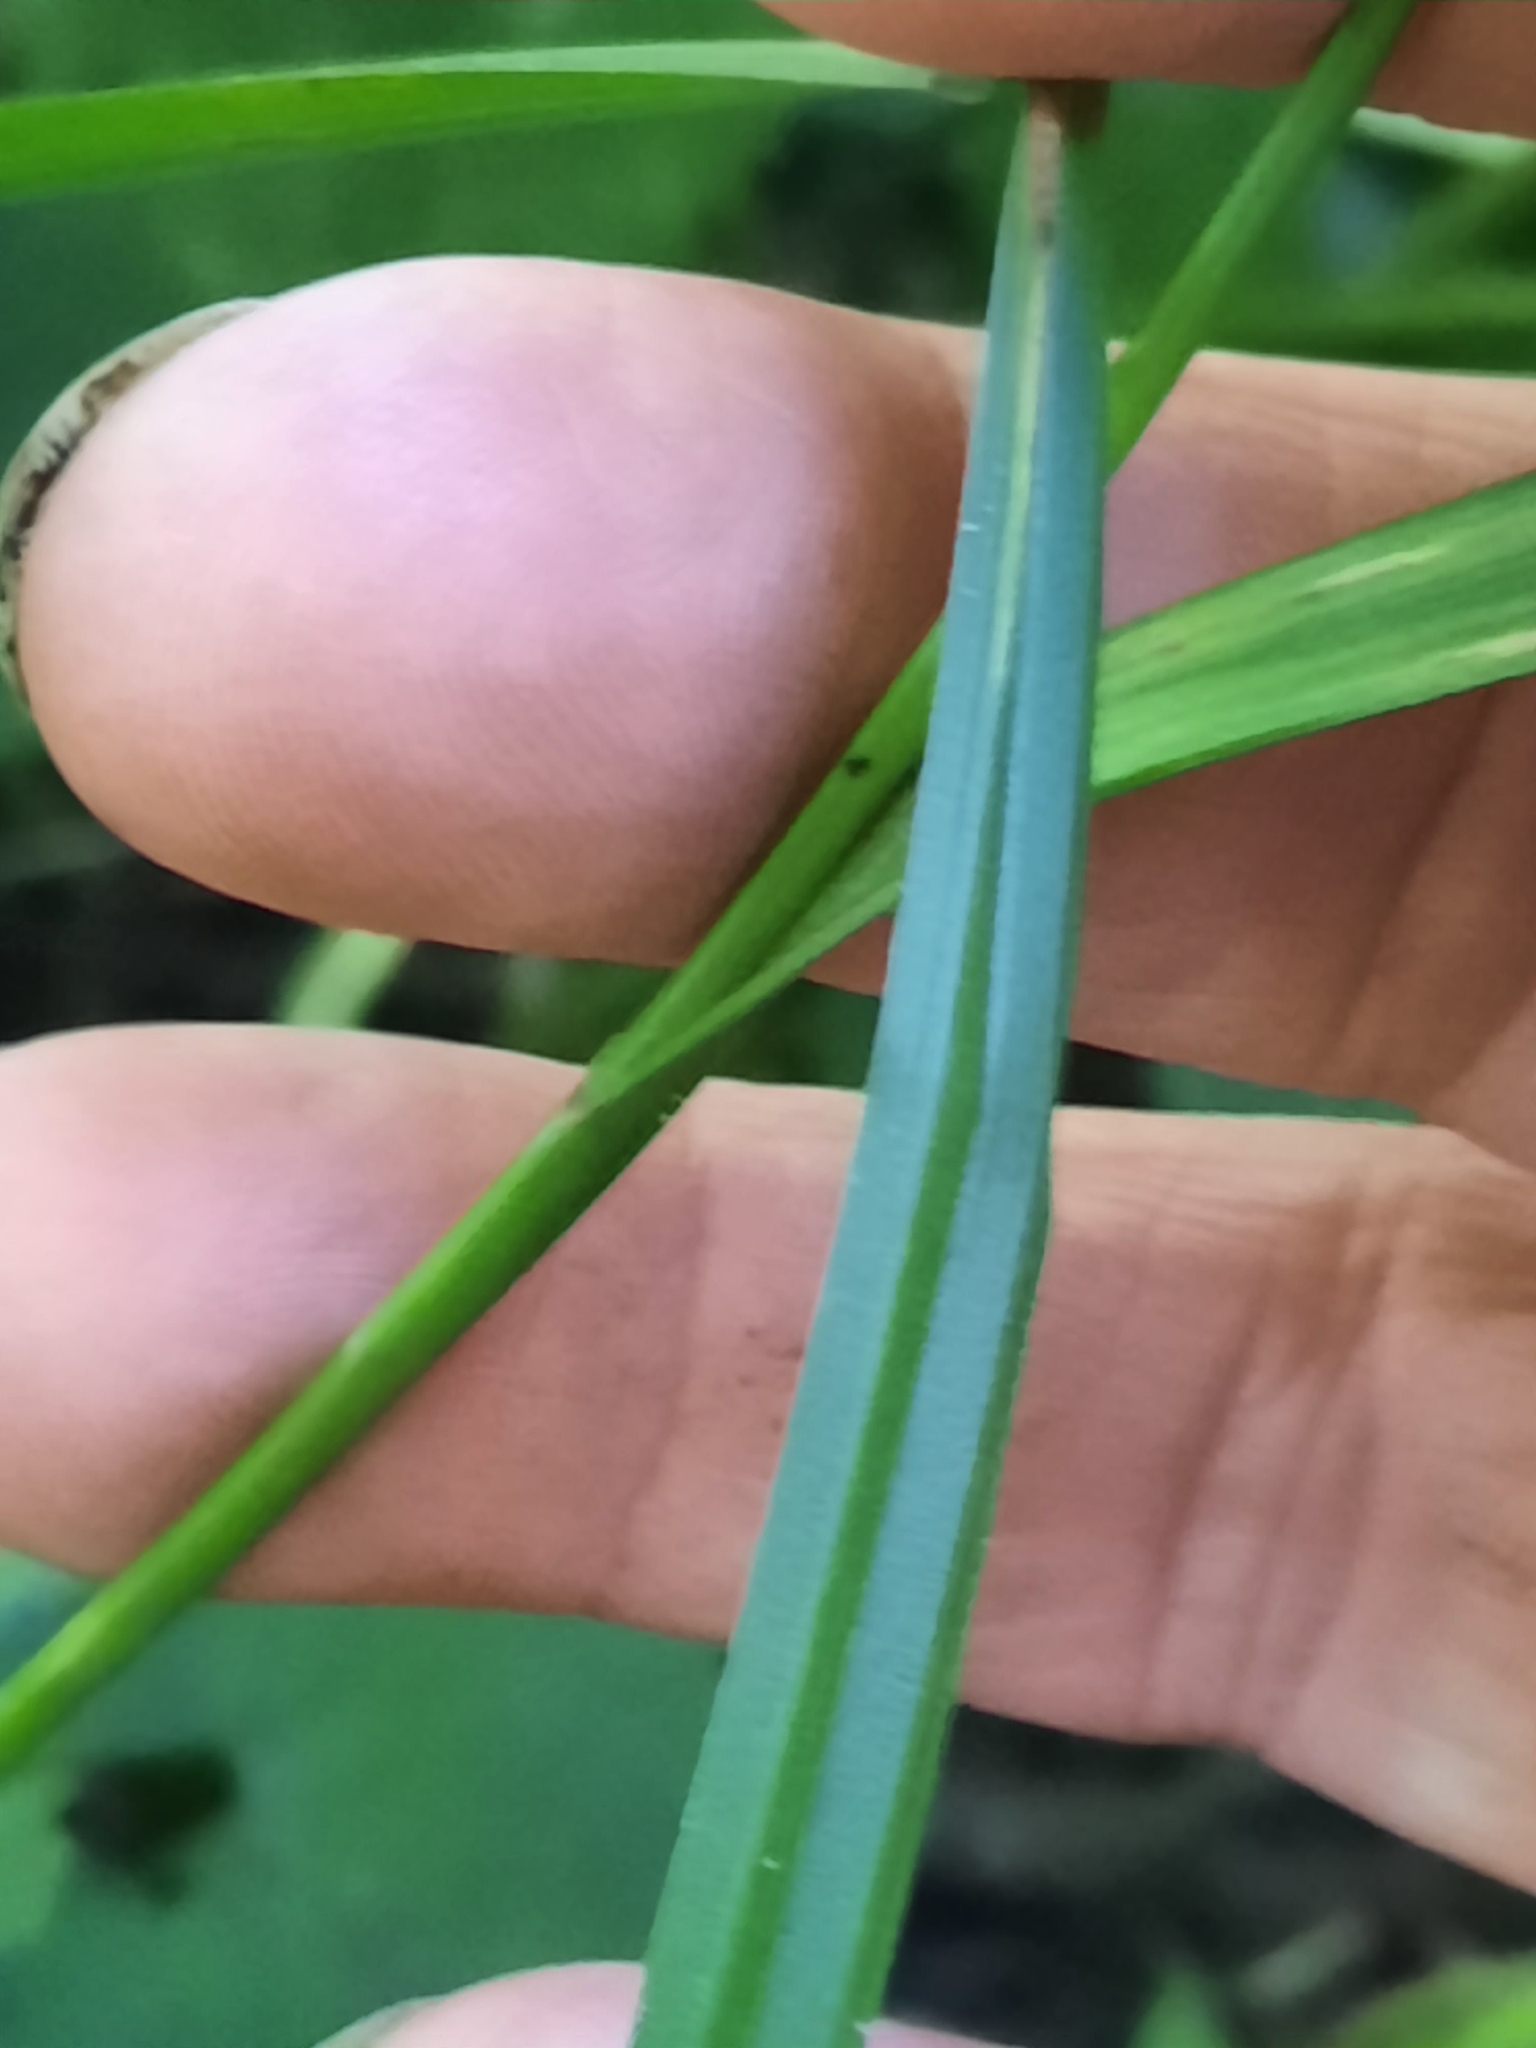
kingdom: Plantae
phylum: Tracheophyta
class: Liliopsida
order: Poales
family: Cyperaceae
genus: Carex
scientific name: Carex grayi
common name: Asa gray's sedge
